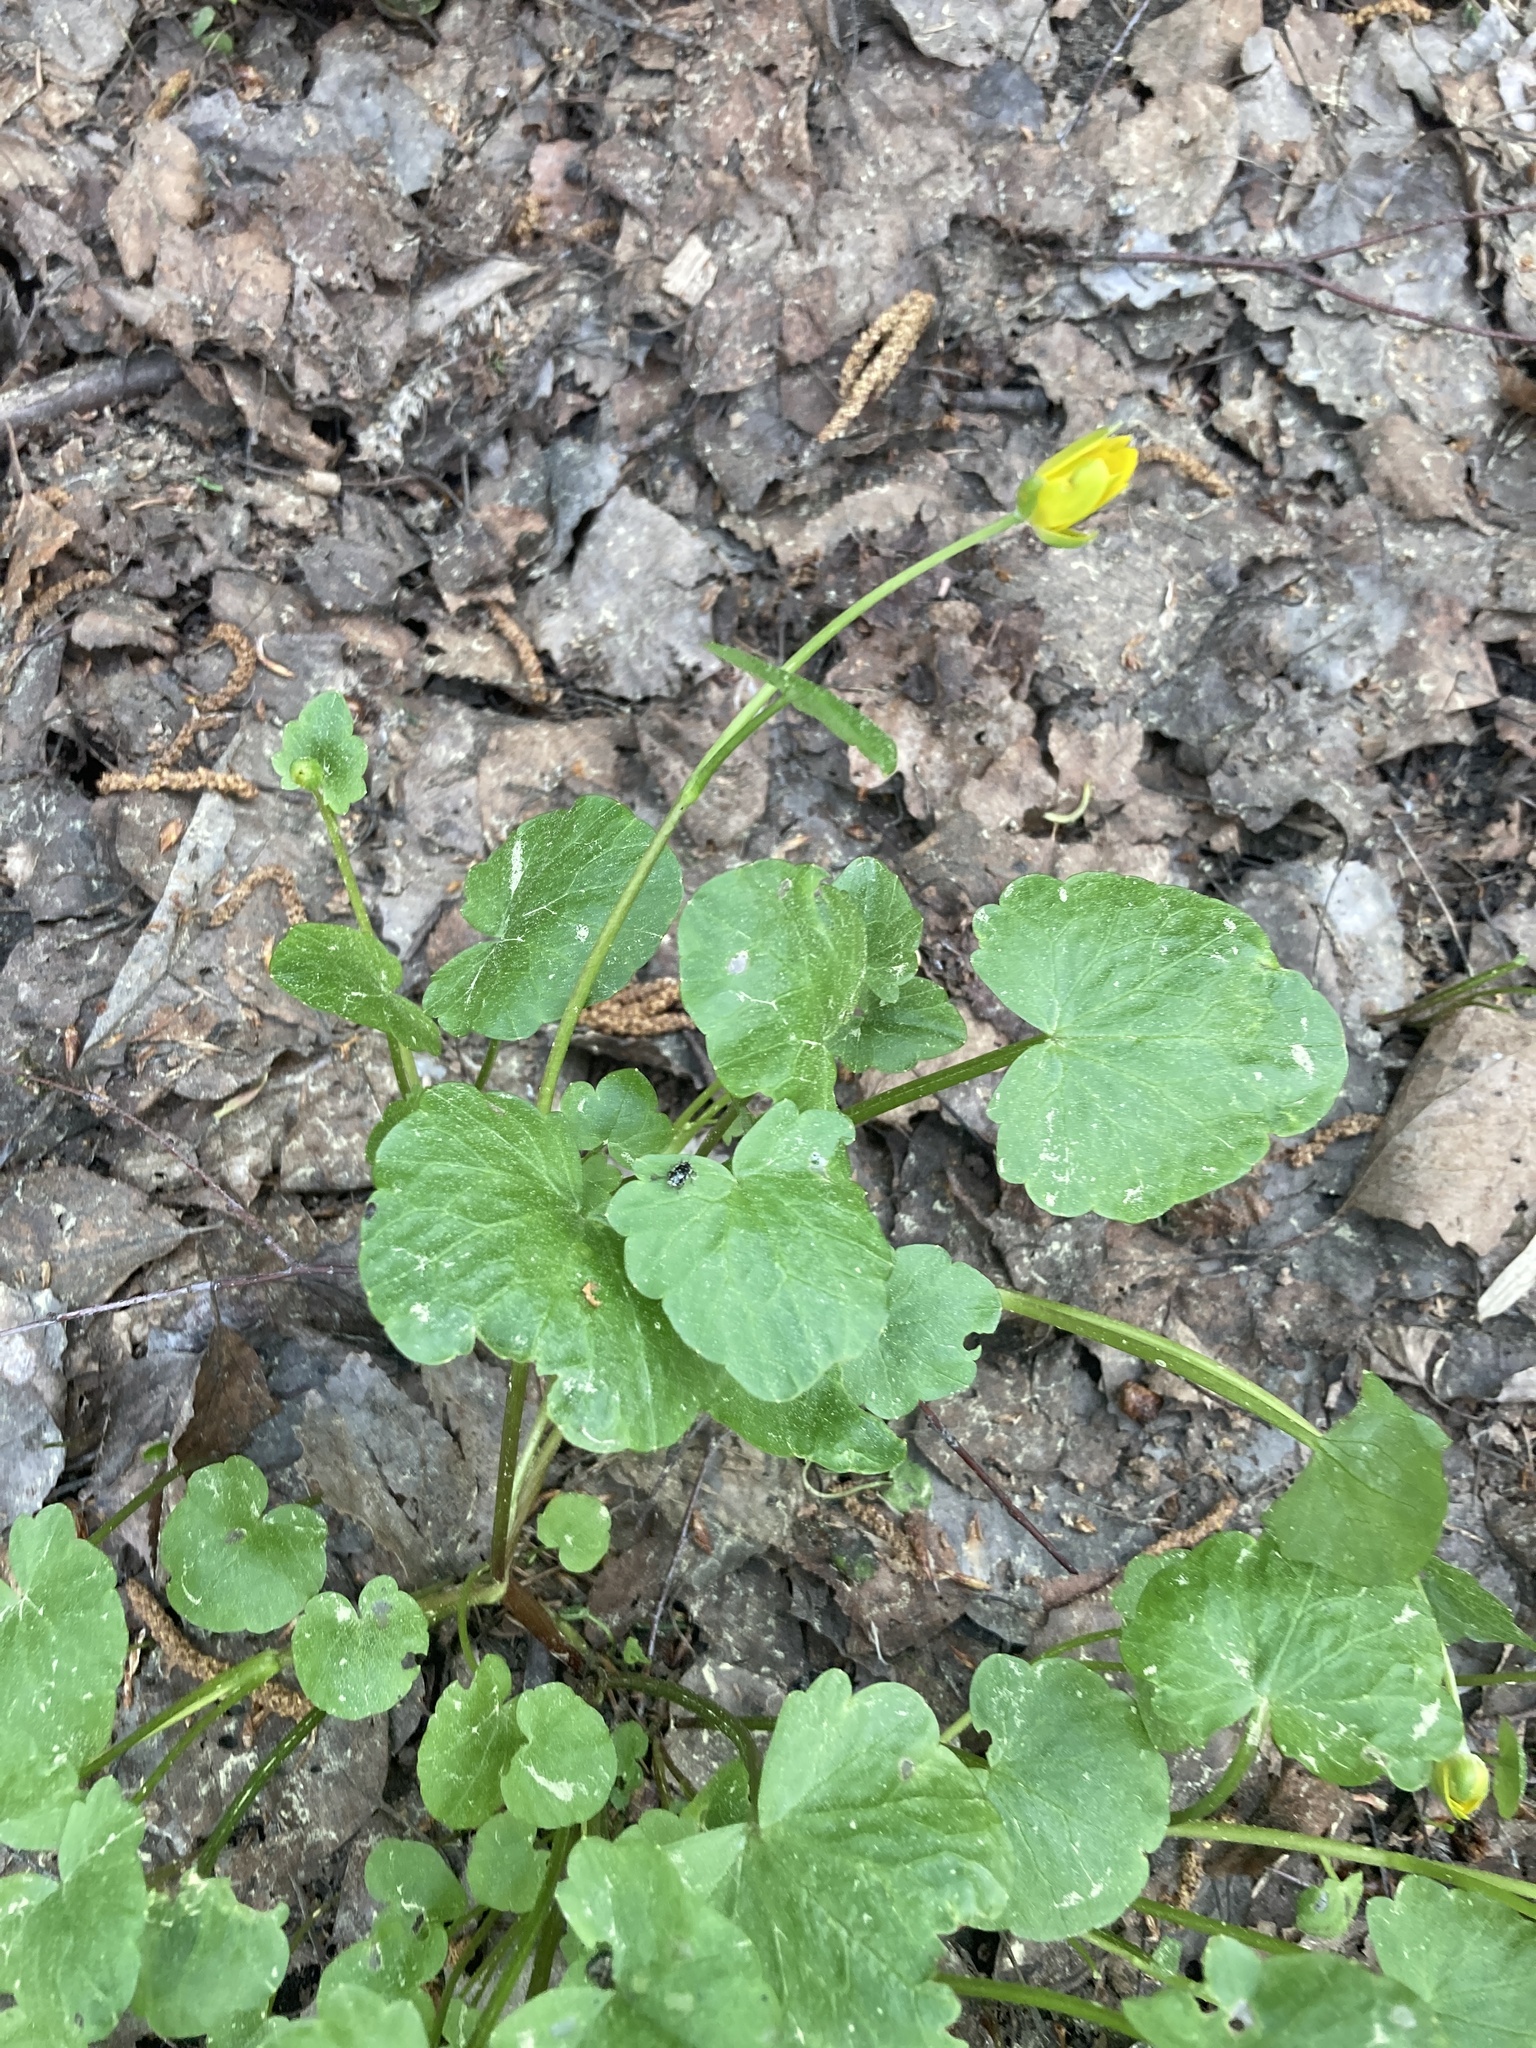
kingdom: Plantae
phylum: Tracheophyta
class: Magnoliopsida
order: Ranunculales
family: Ranunculaceae
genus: Ficaria
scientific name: Ficaria verna
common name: Lesser celandine
